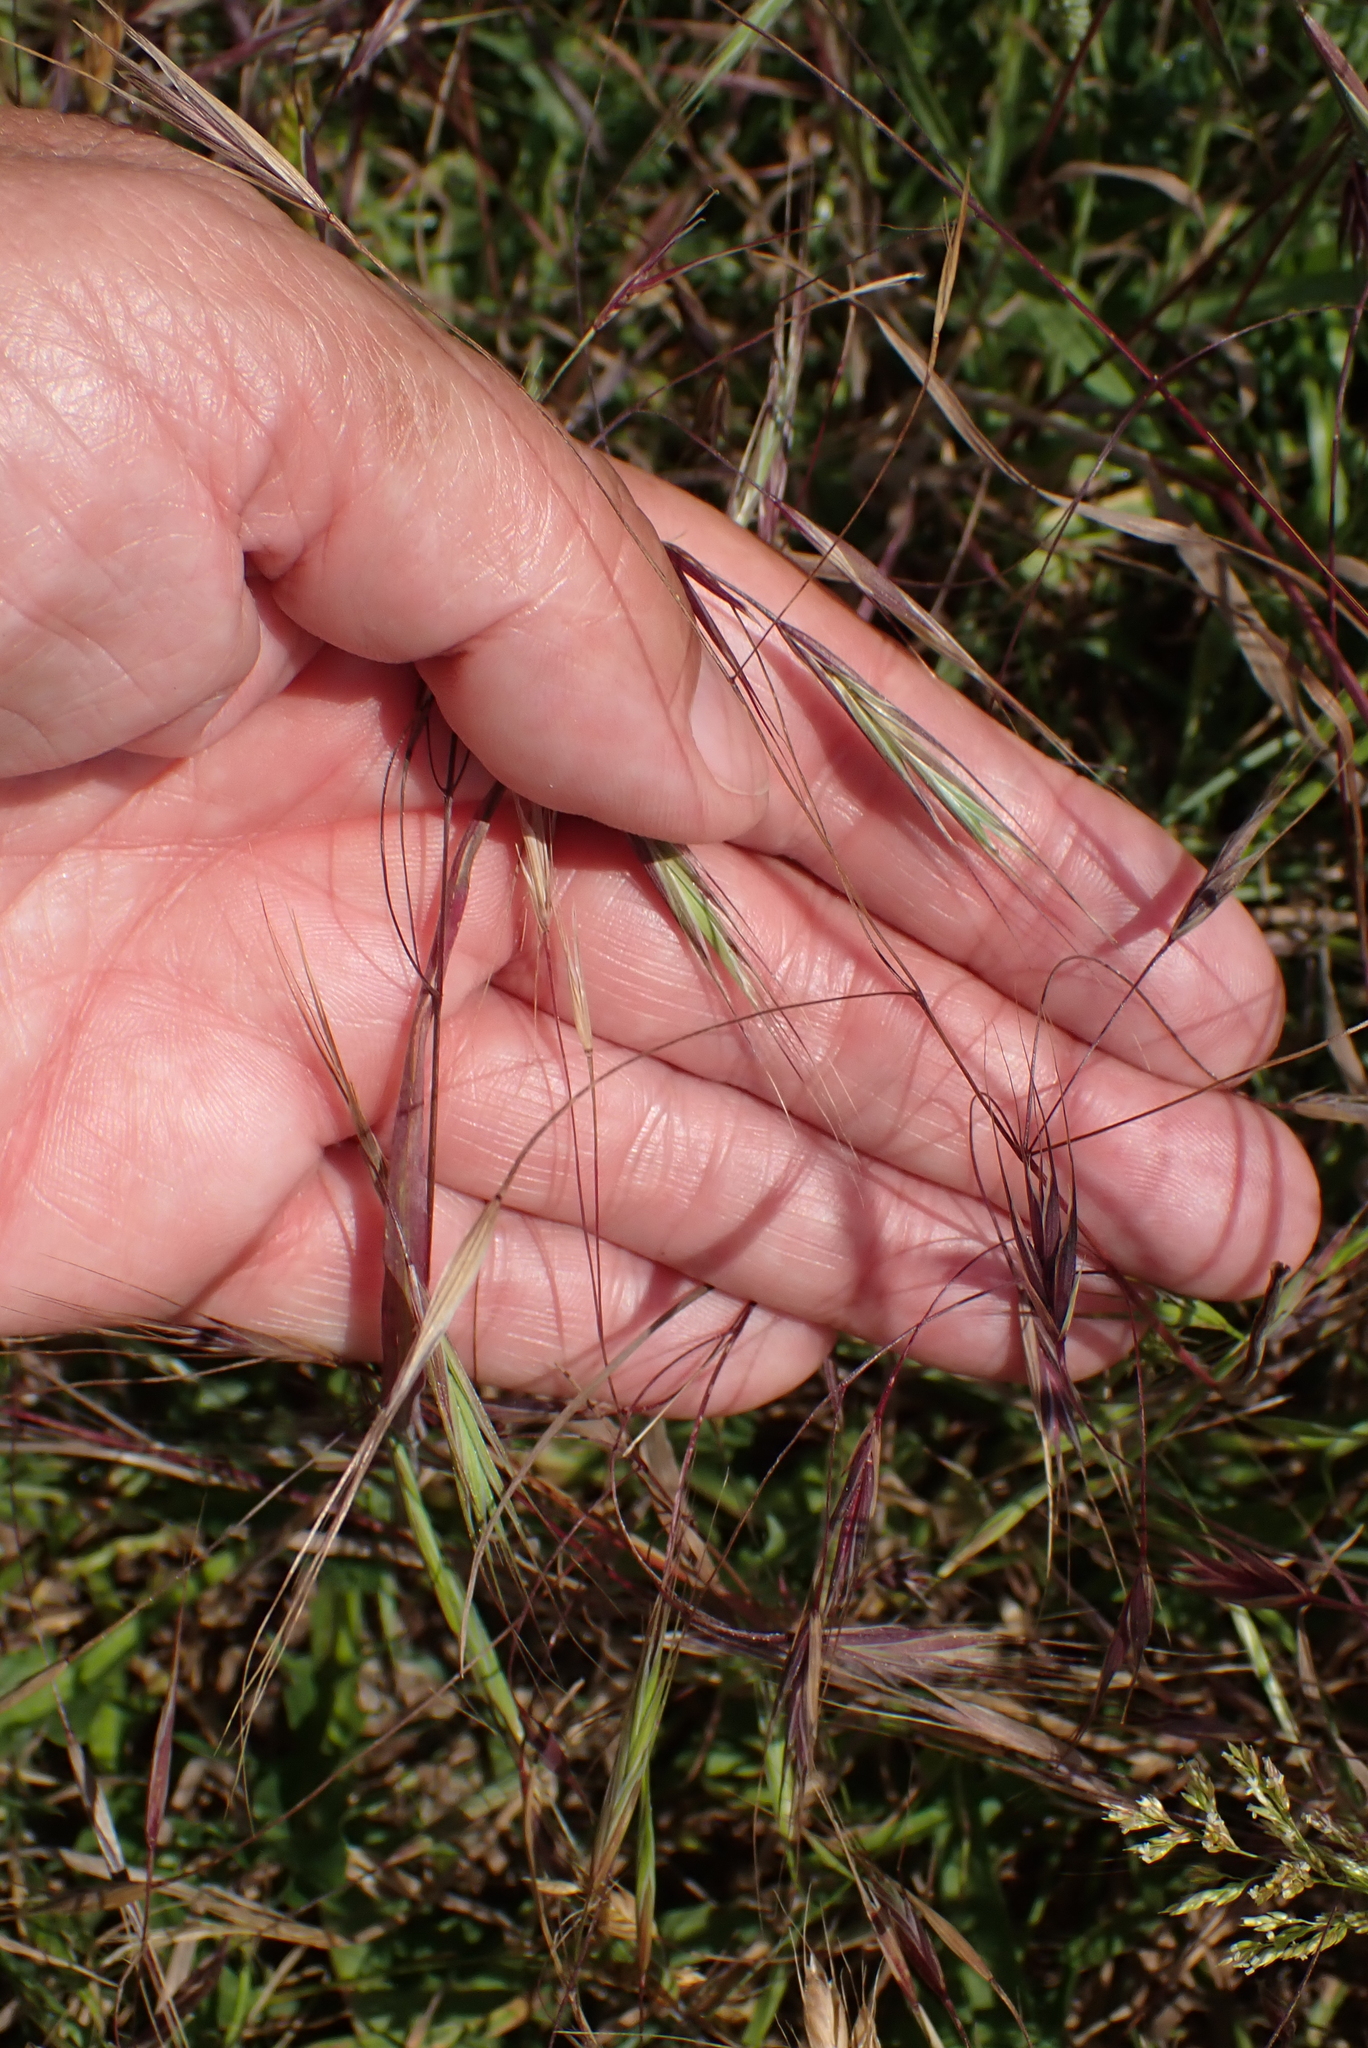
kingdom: Plantae
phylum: Tracheophyta
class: Liliopsida
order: Poales
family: Poaceae
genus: Bromus
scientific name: Bromus sterilis
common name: Poverty brome
